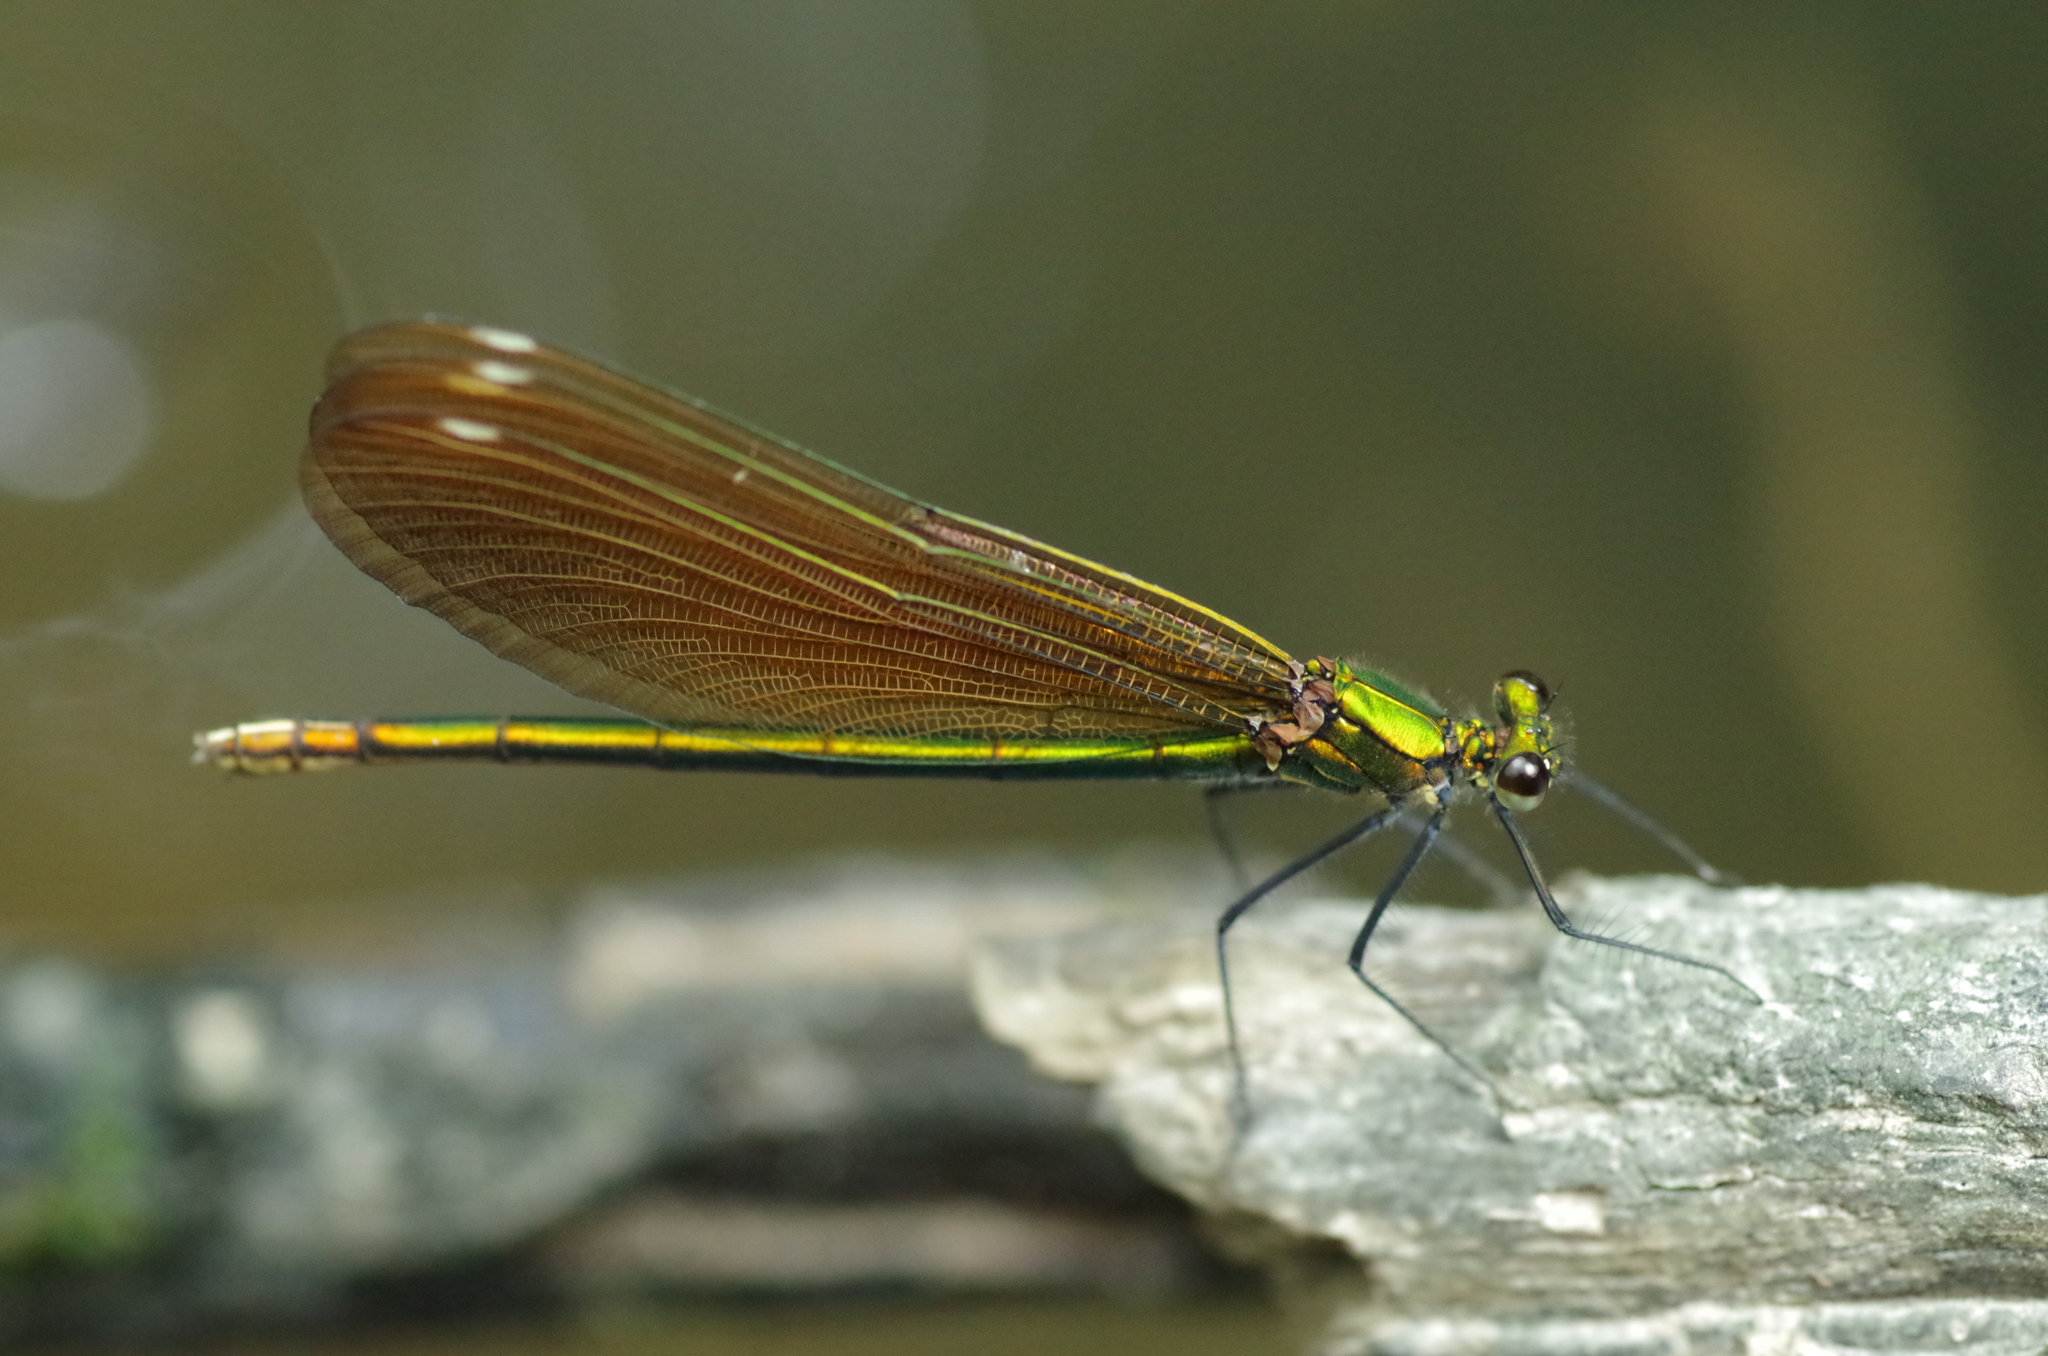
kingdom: Animalia
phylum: Arthropoda
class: Insecta
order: Odonata
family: Calopterygidae
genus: Calopteryx
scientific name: Calopteryx virgo
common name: Beautiful demoiselle
